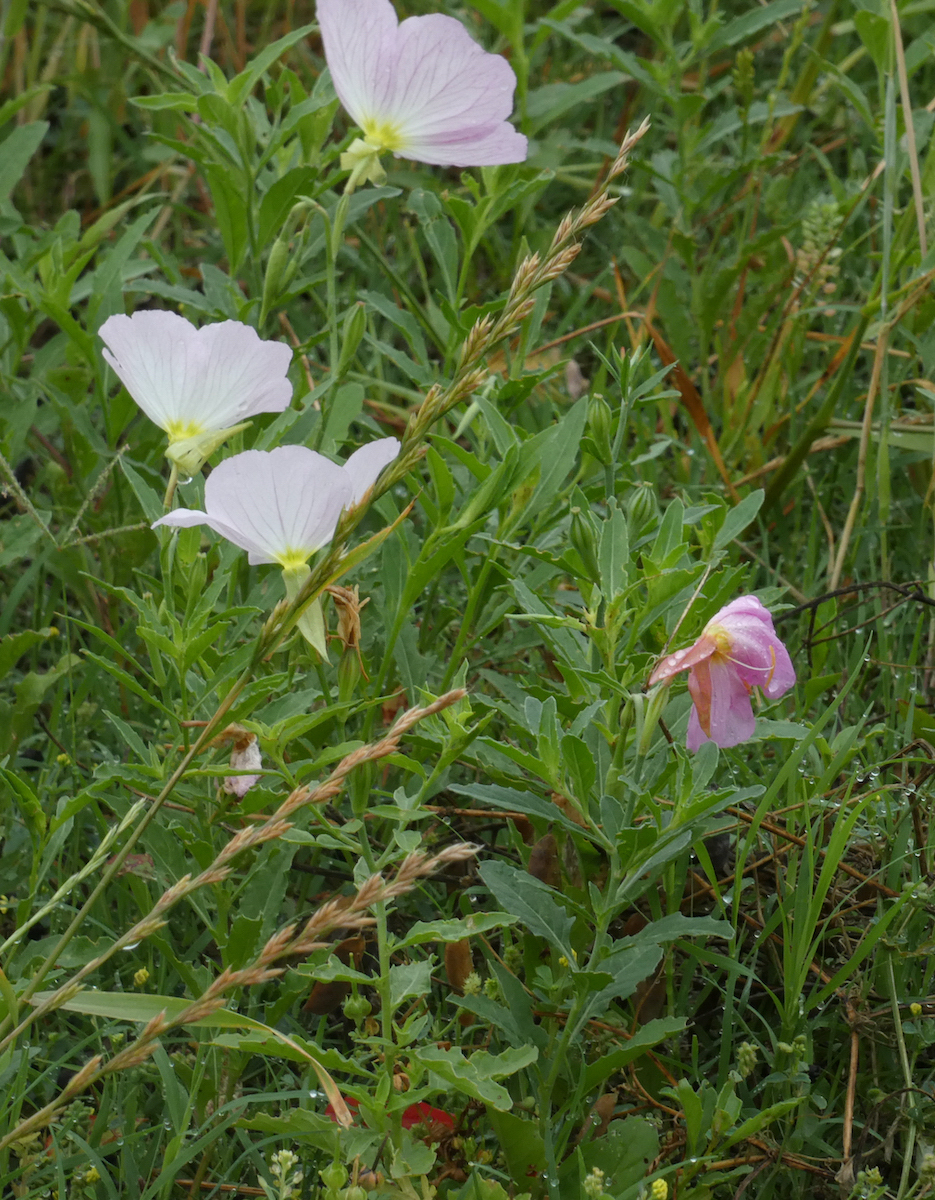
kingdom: Plantae
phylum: Tracheophyta
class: Magnoliopsida
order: Myrtales
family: Onagraceae
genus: Oenothera
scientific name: Oenothera speciosa
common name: White evening-primrose
